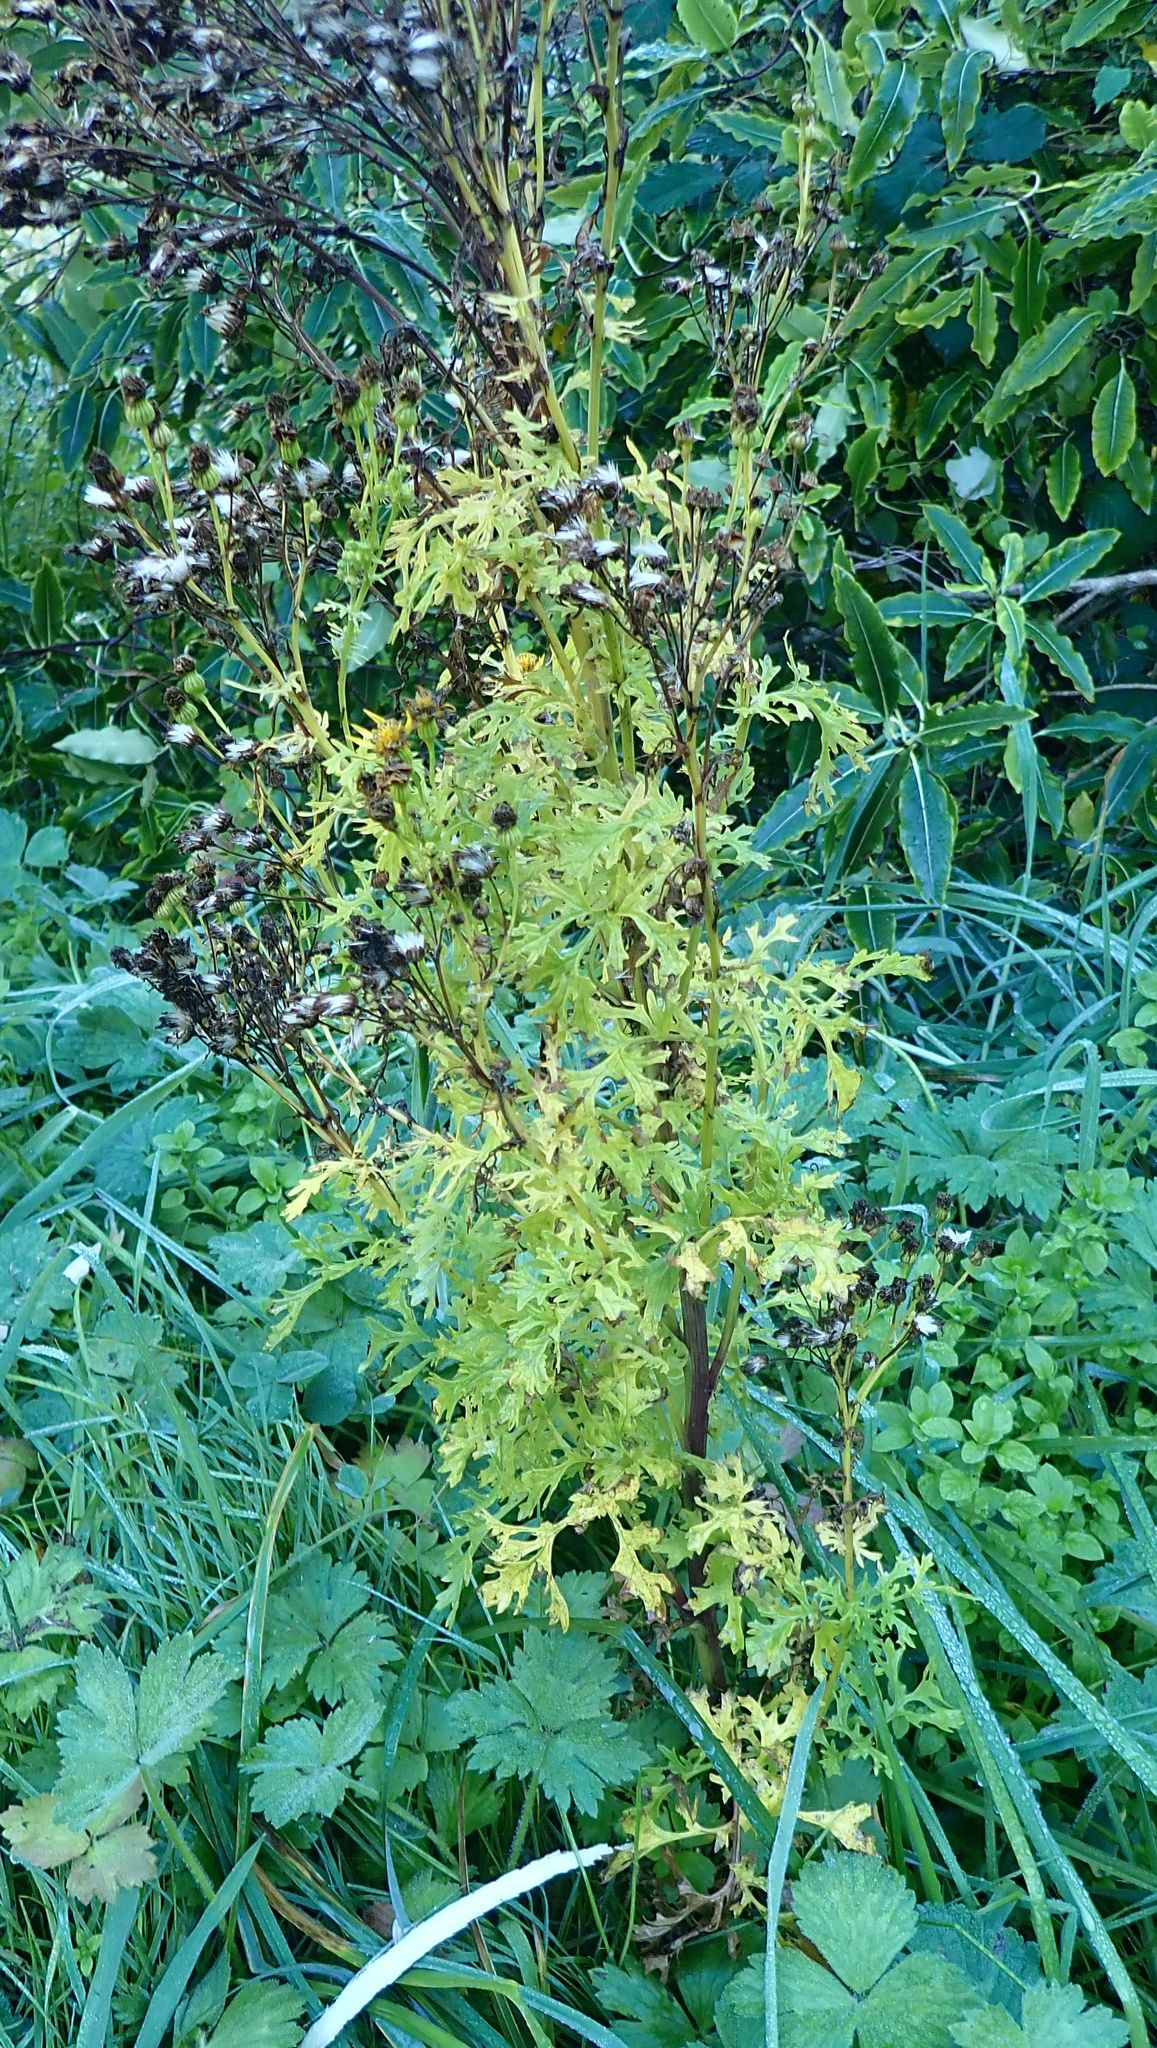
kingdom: Plantae
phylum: Tracheophyta
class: Magnoliopsida
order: Asterales
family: Asteraceae
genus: Jacobaea
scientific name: Jacobaea vulgaris
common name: Stinking willie
